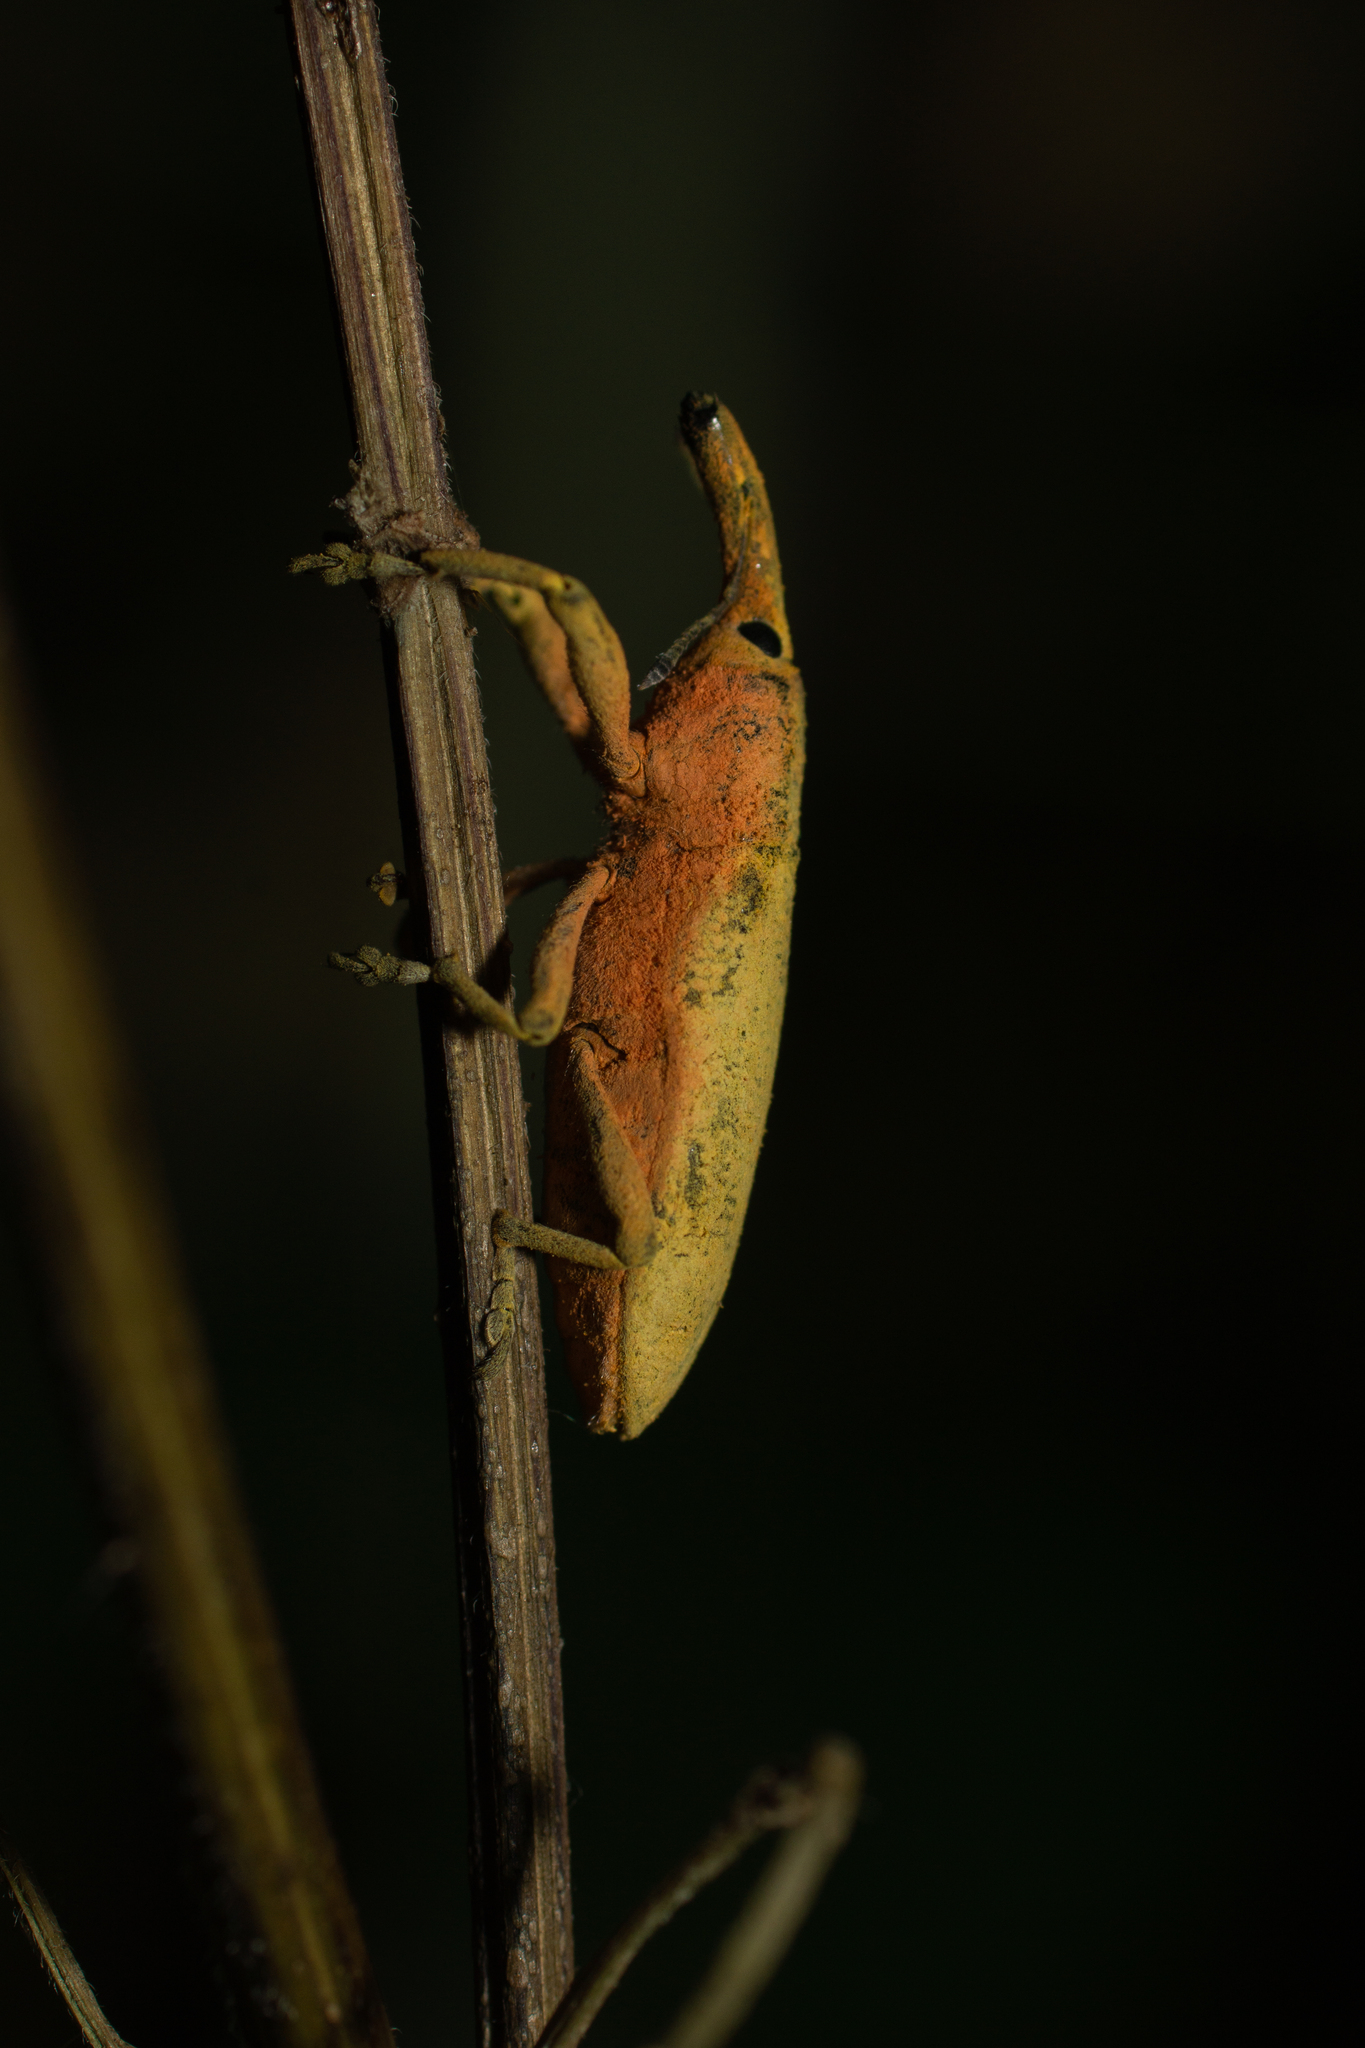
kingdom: Animalia
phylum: Arthropoda
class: Insecta
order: Coleoptera
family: Curculionidae
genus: Lixus
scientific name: Lixus pulverulentus
